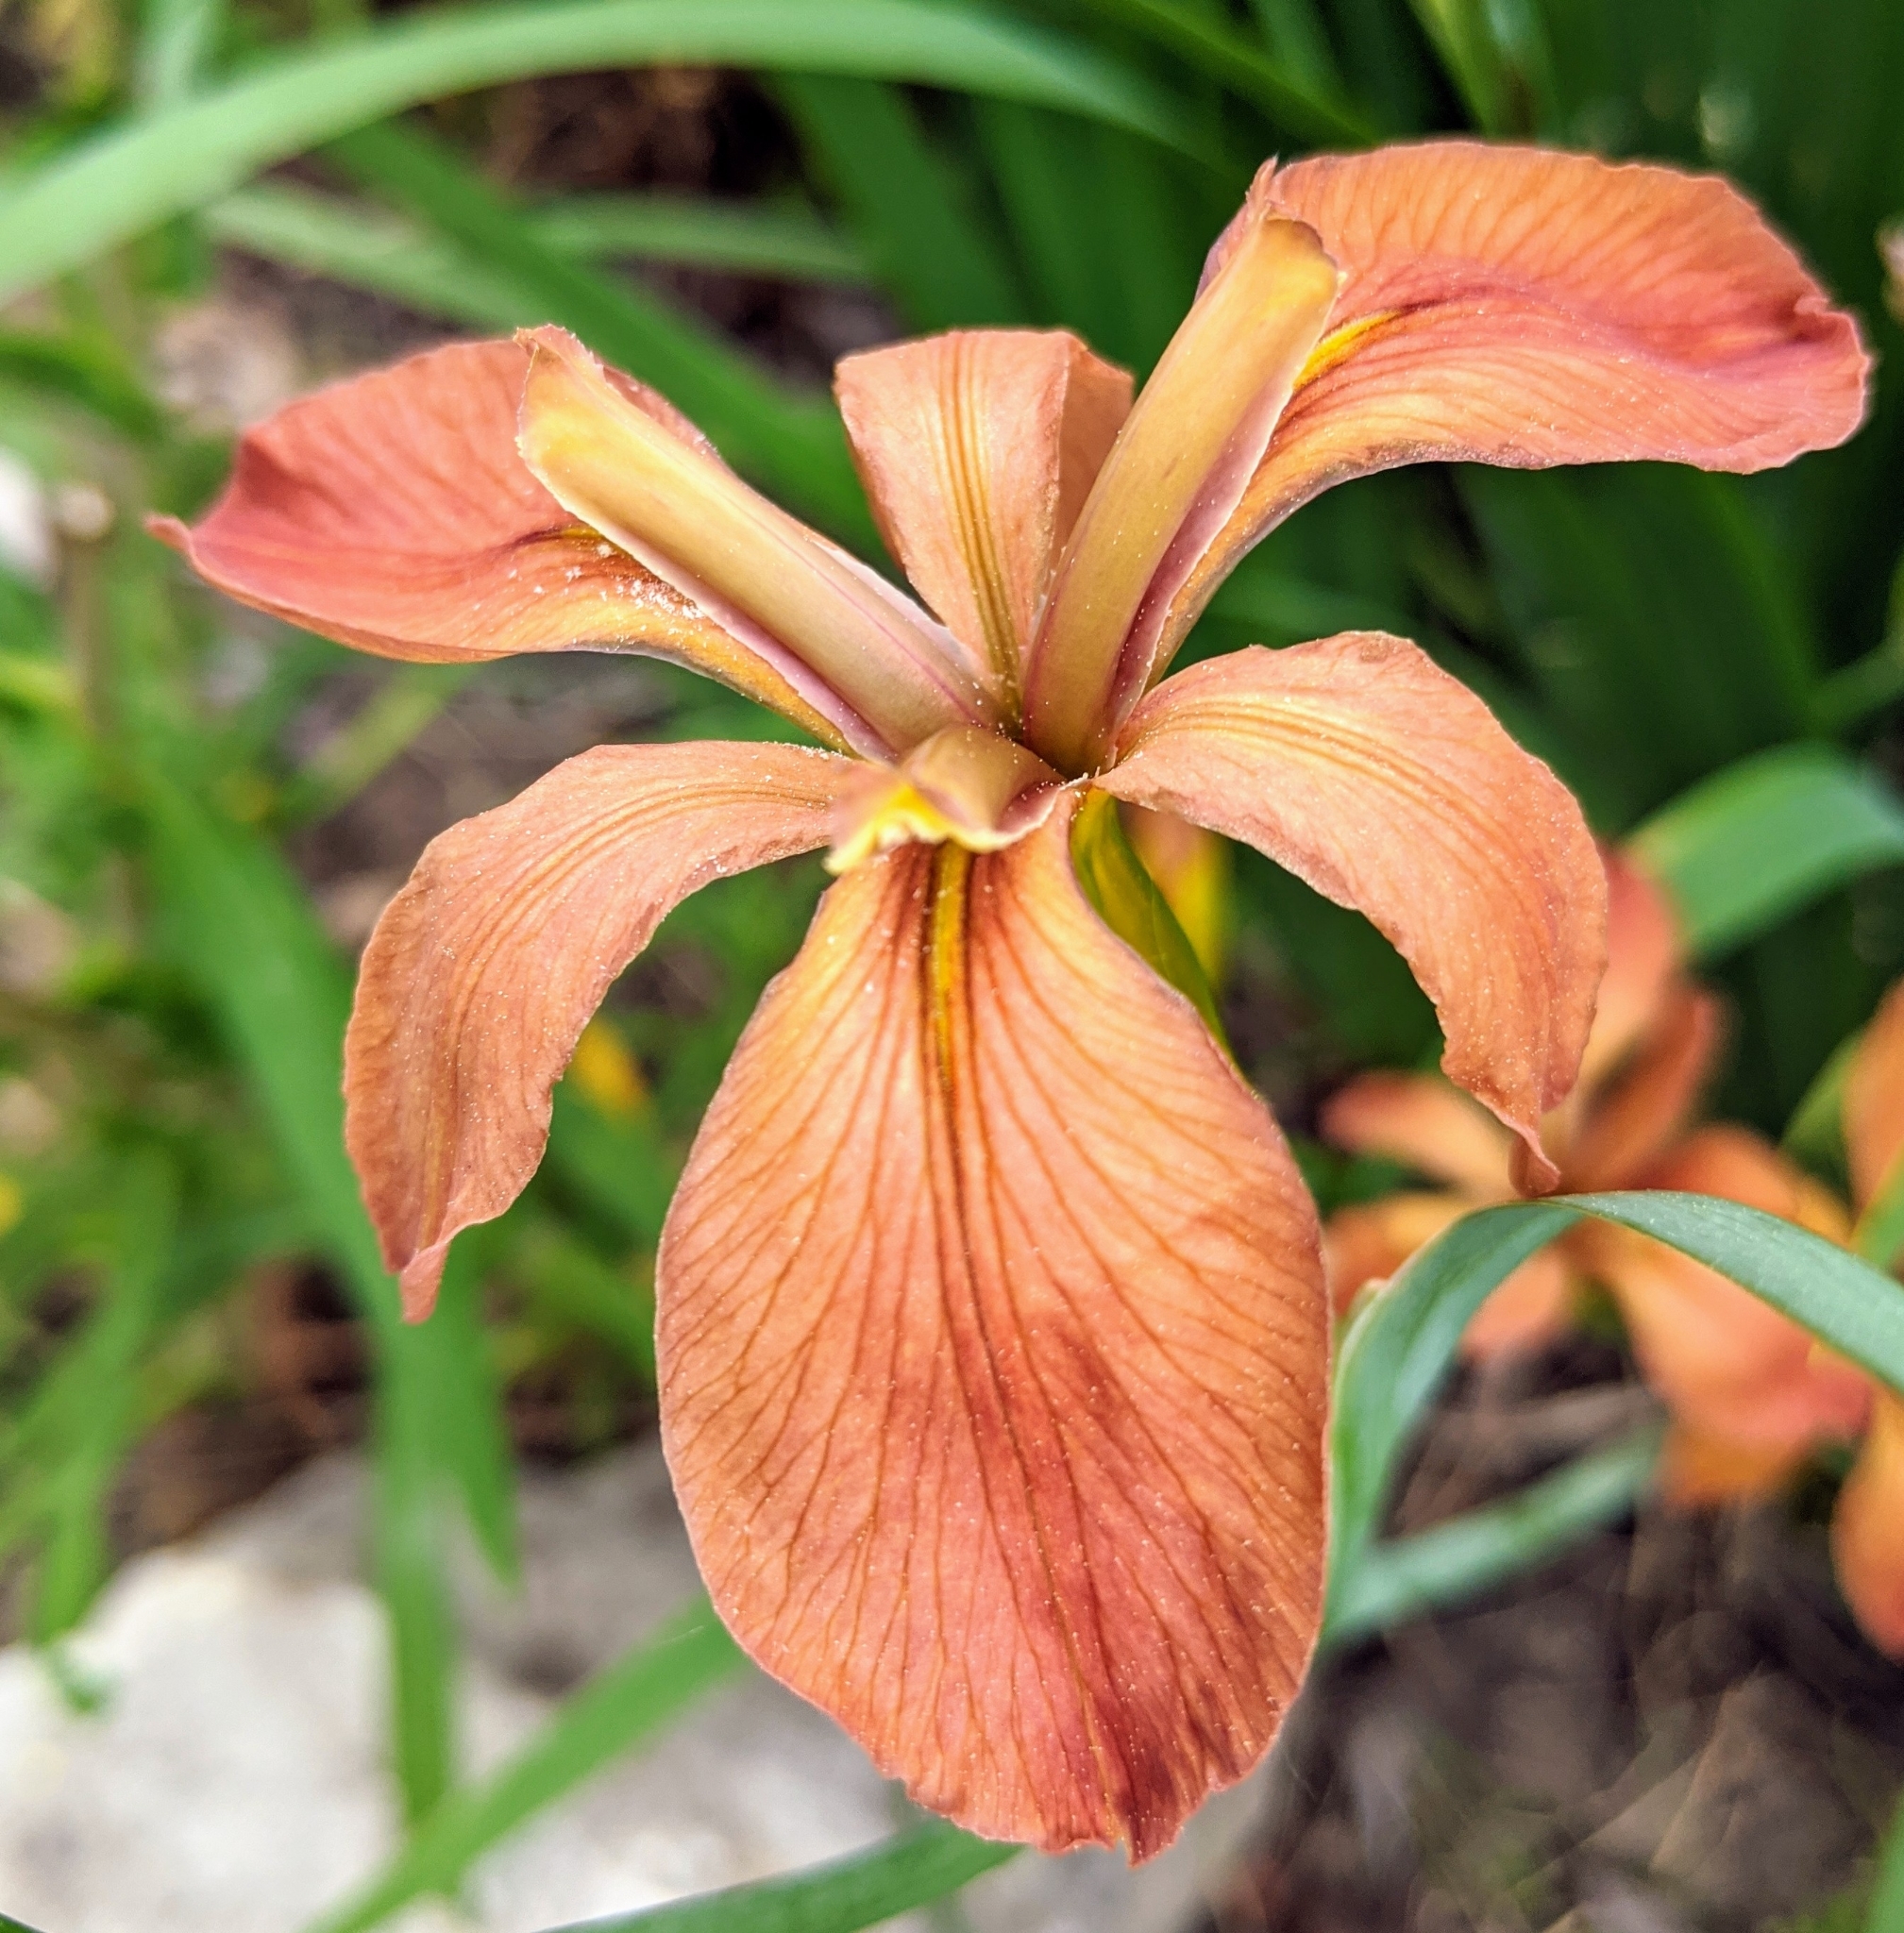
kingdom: Plantae
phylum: Tracheophyta
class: Liliopsida
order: Asparagales
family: Iridaceae
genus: Iris
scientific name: Iris fulva
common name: Copper iris
